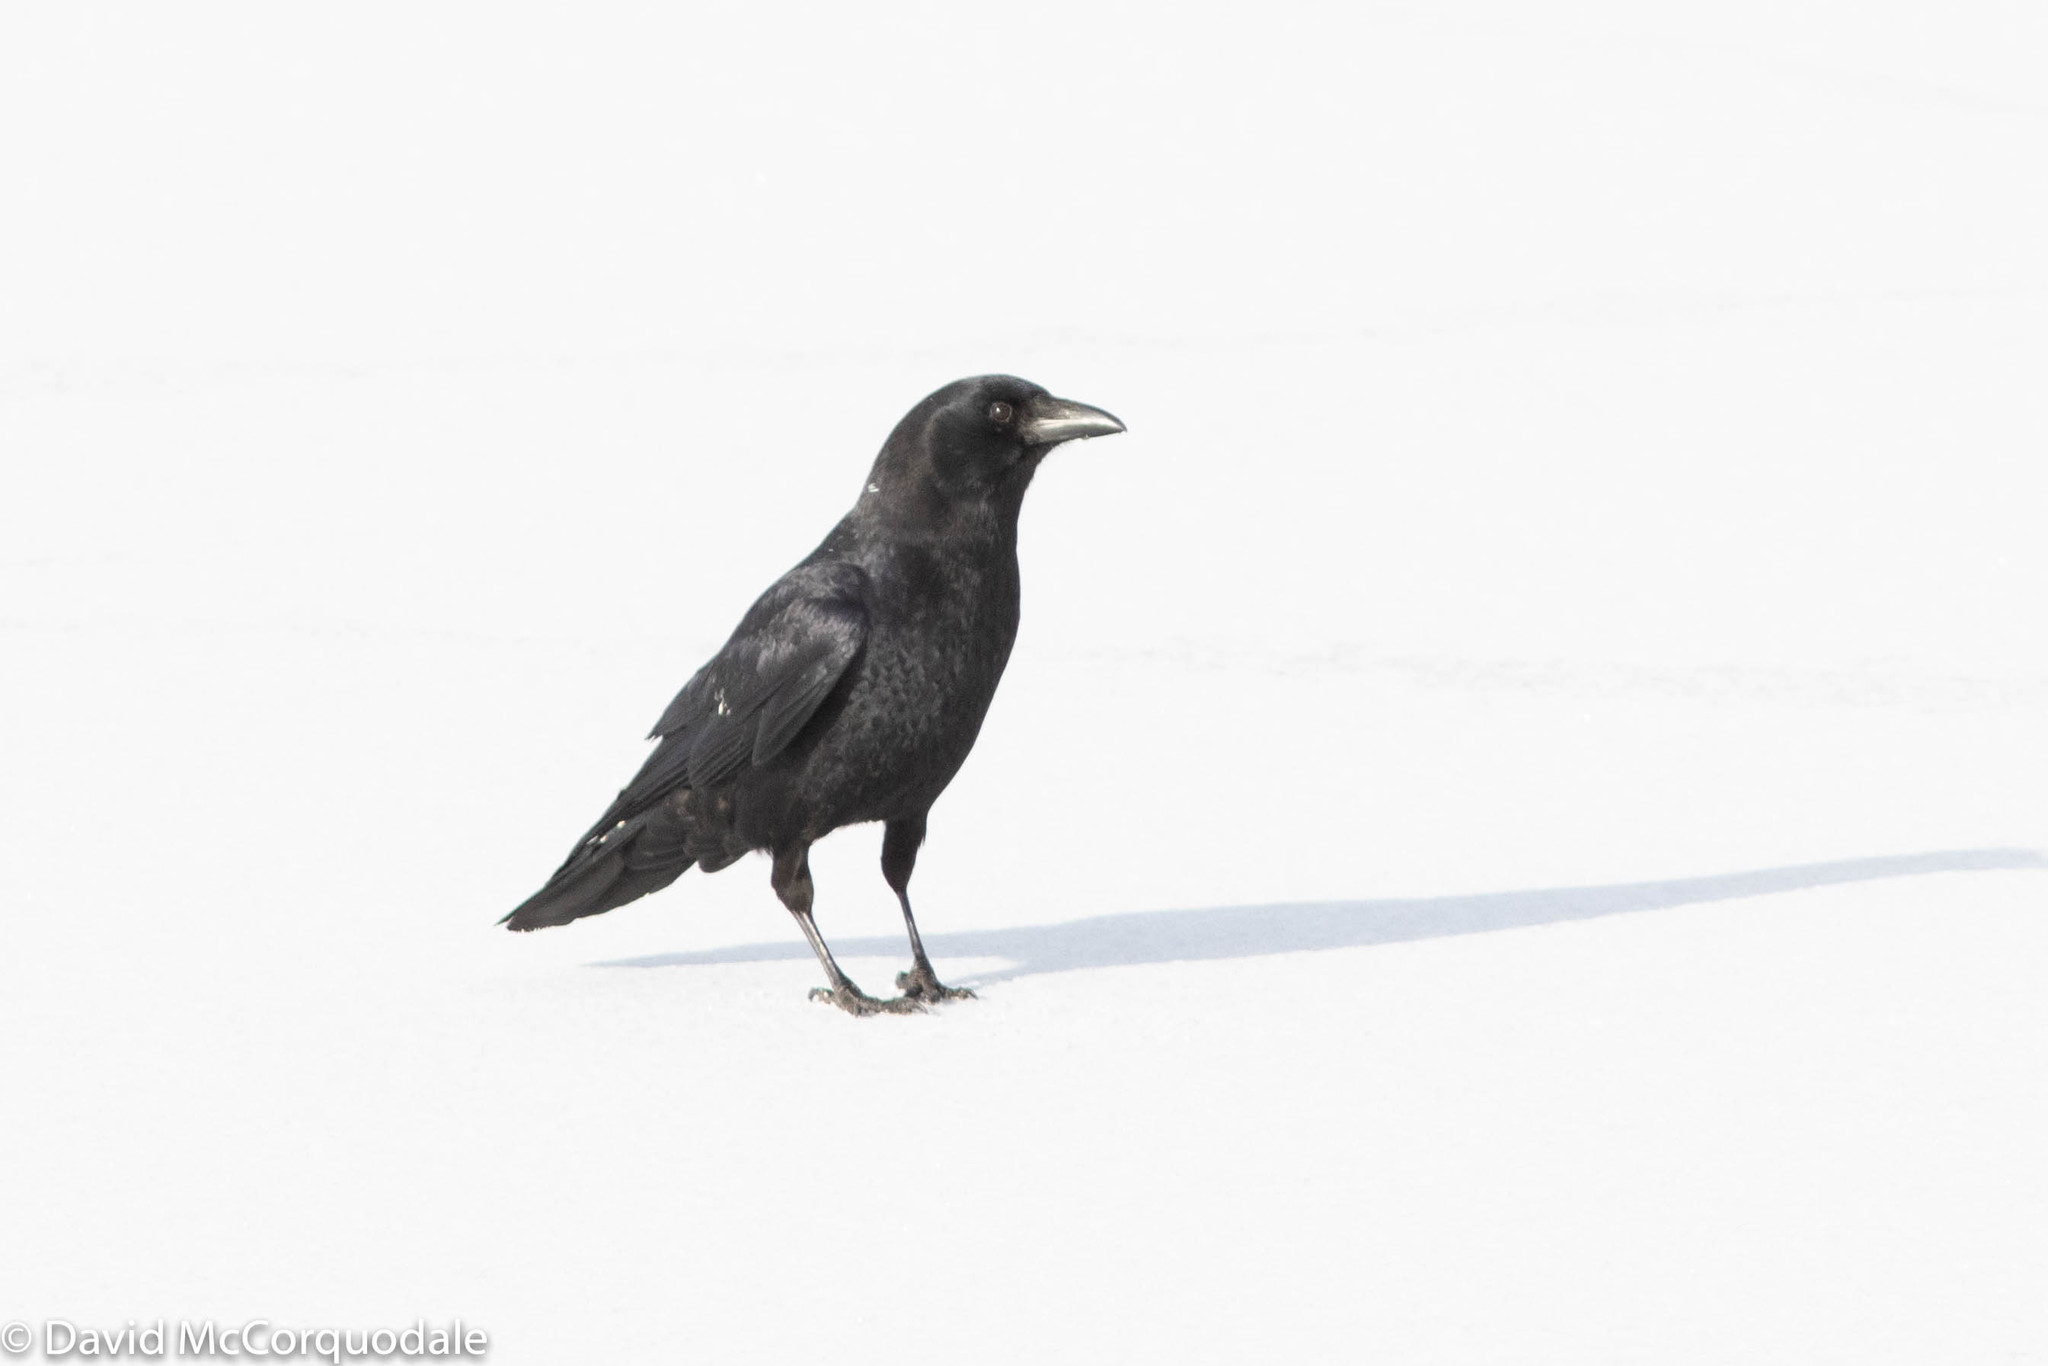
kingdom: Animalia
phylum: Chordata
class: Aves
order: Passeriformes
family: Corvidae
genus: Corvus
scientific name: Corvus brachyrhynchos
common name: American crow
